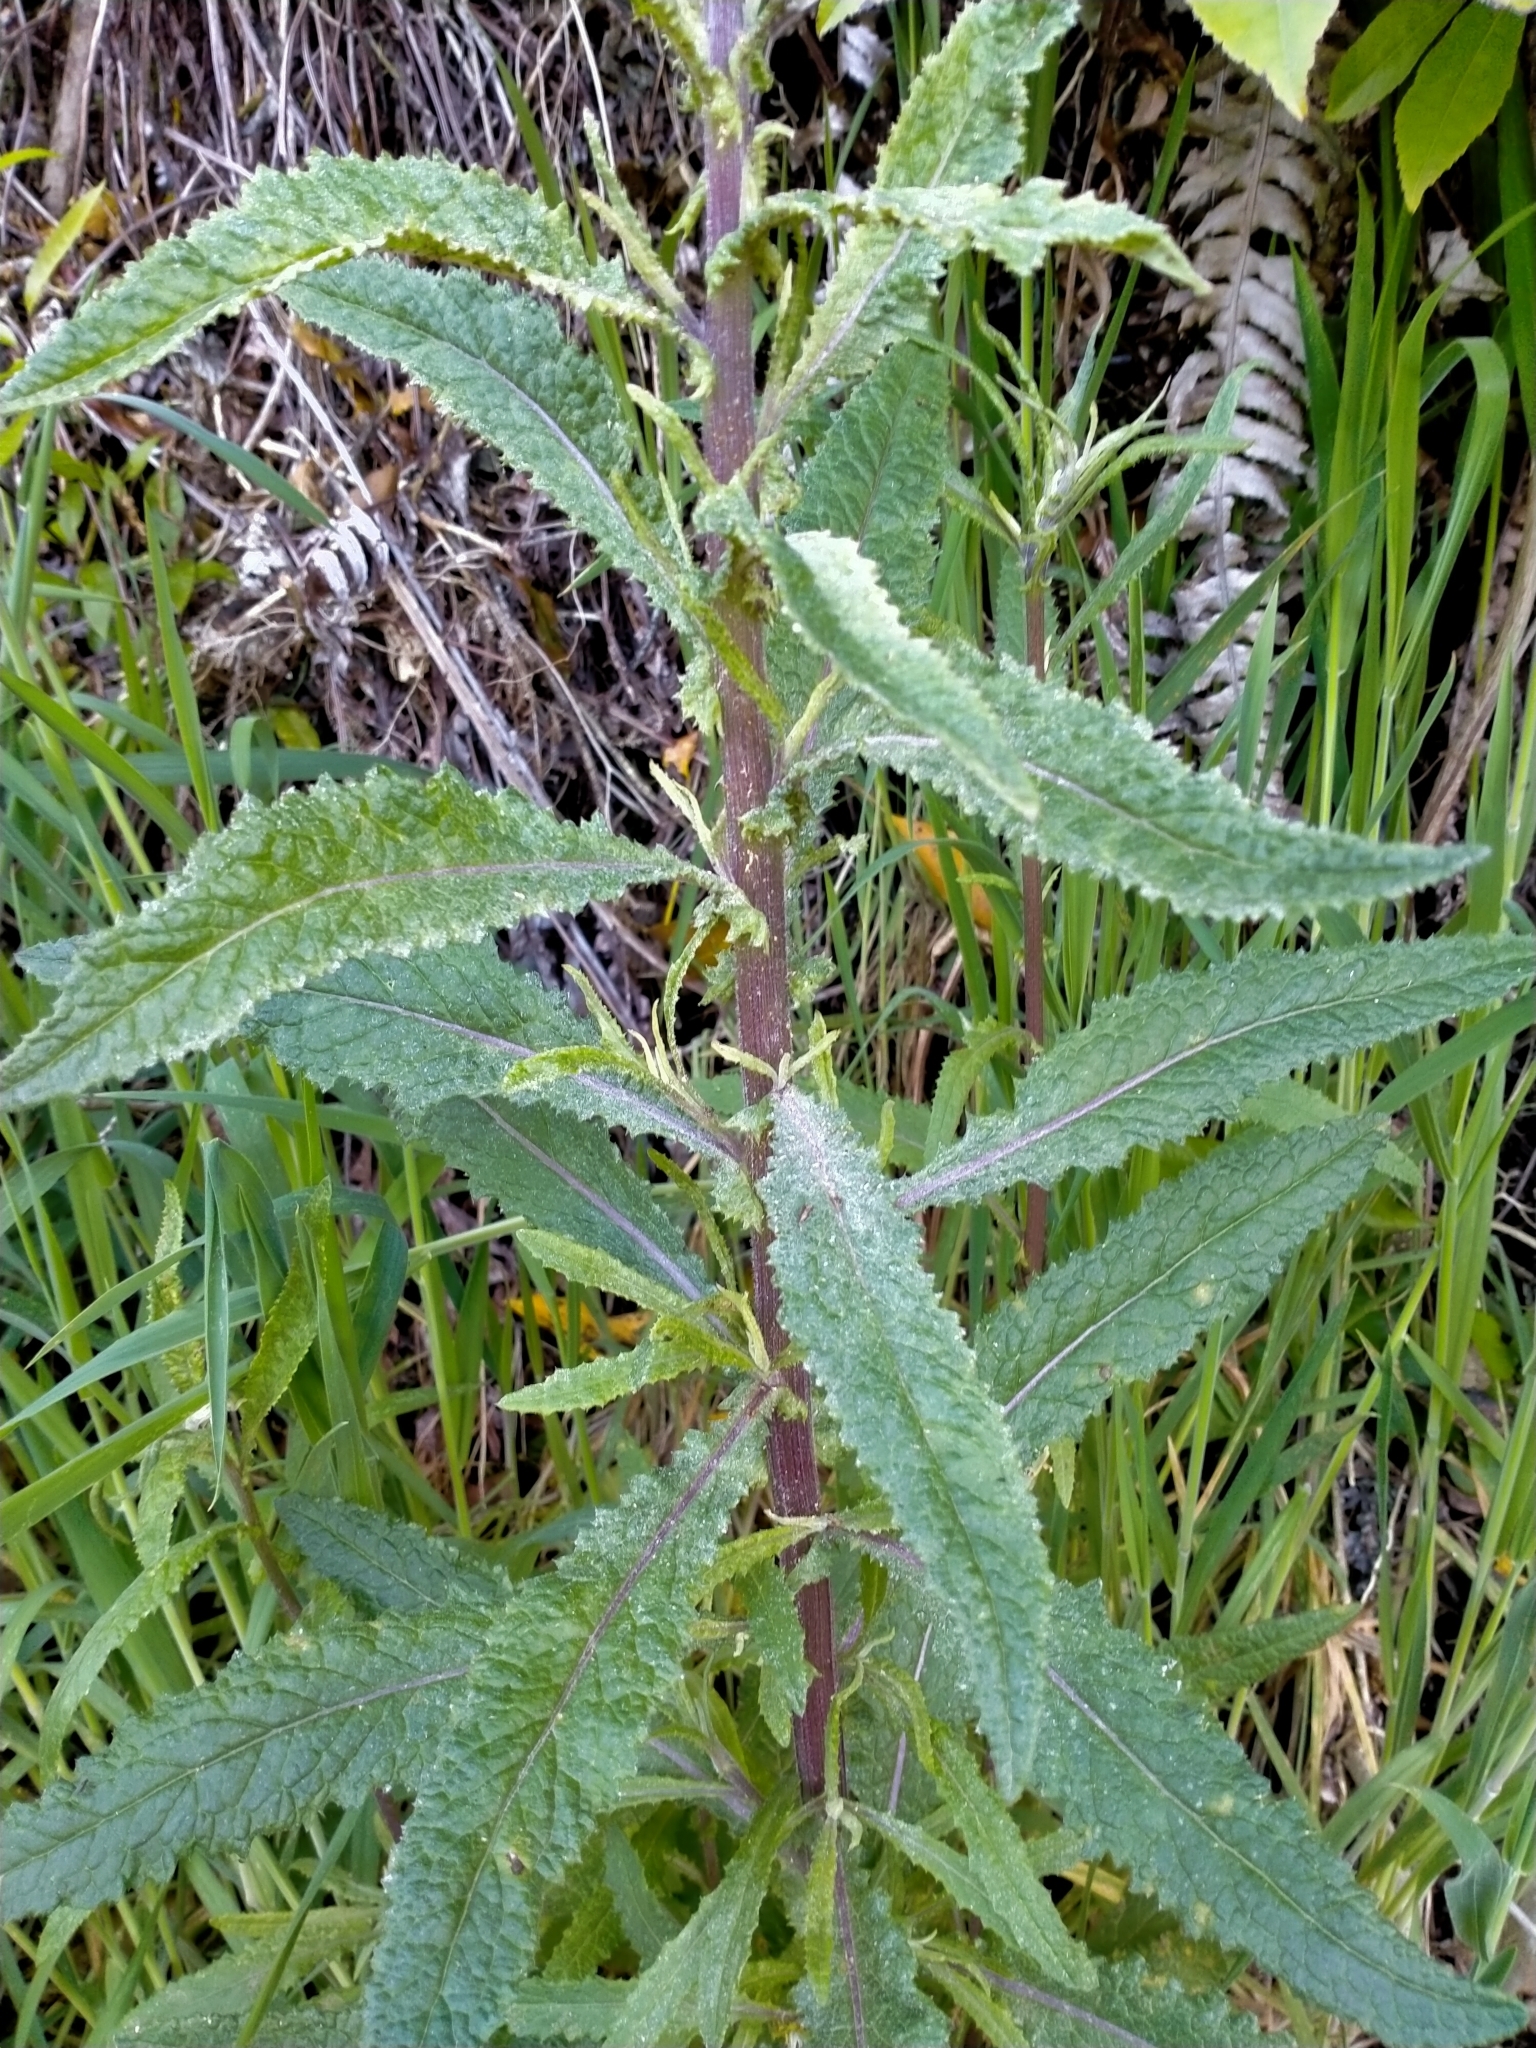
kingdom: Plantae
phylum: Tracheophyta
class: Magnoliopsida
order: Asterales
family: Asteraceae
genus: Senecio
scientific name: Senecio minimus
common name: Toothed fireweed
